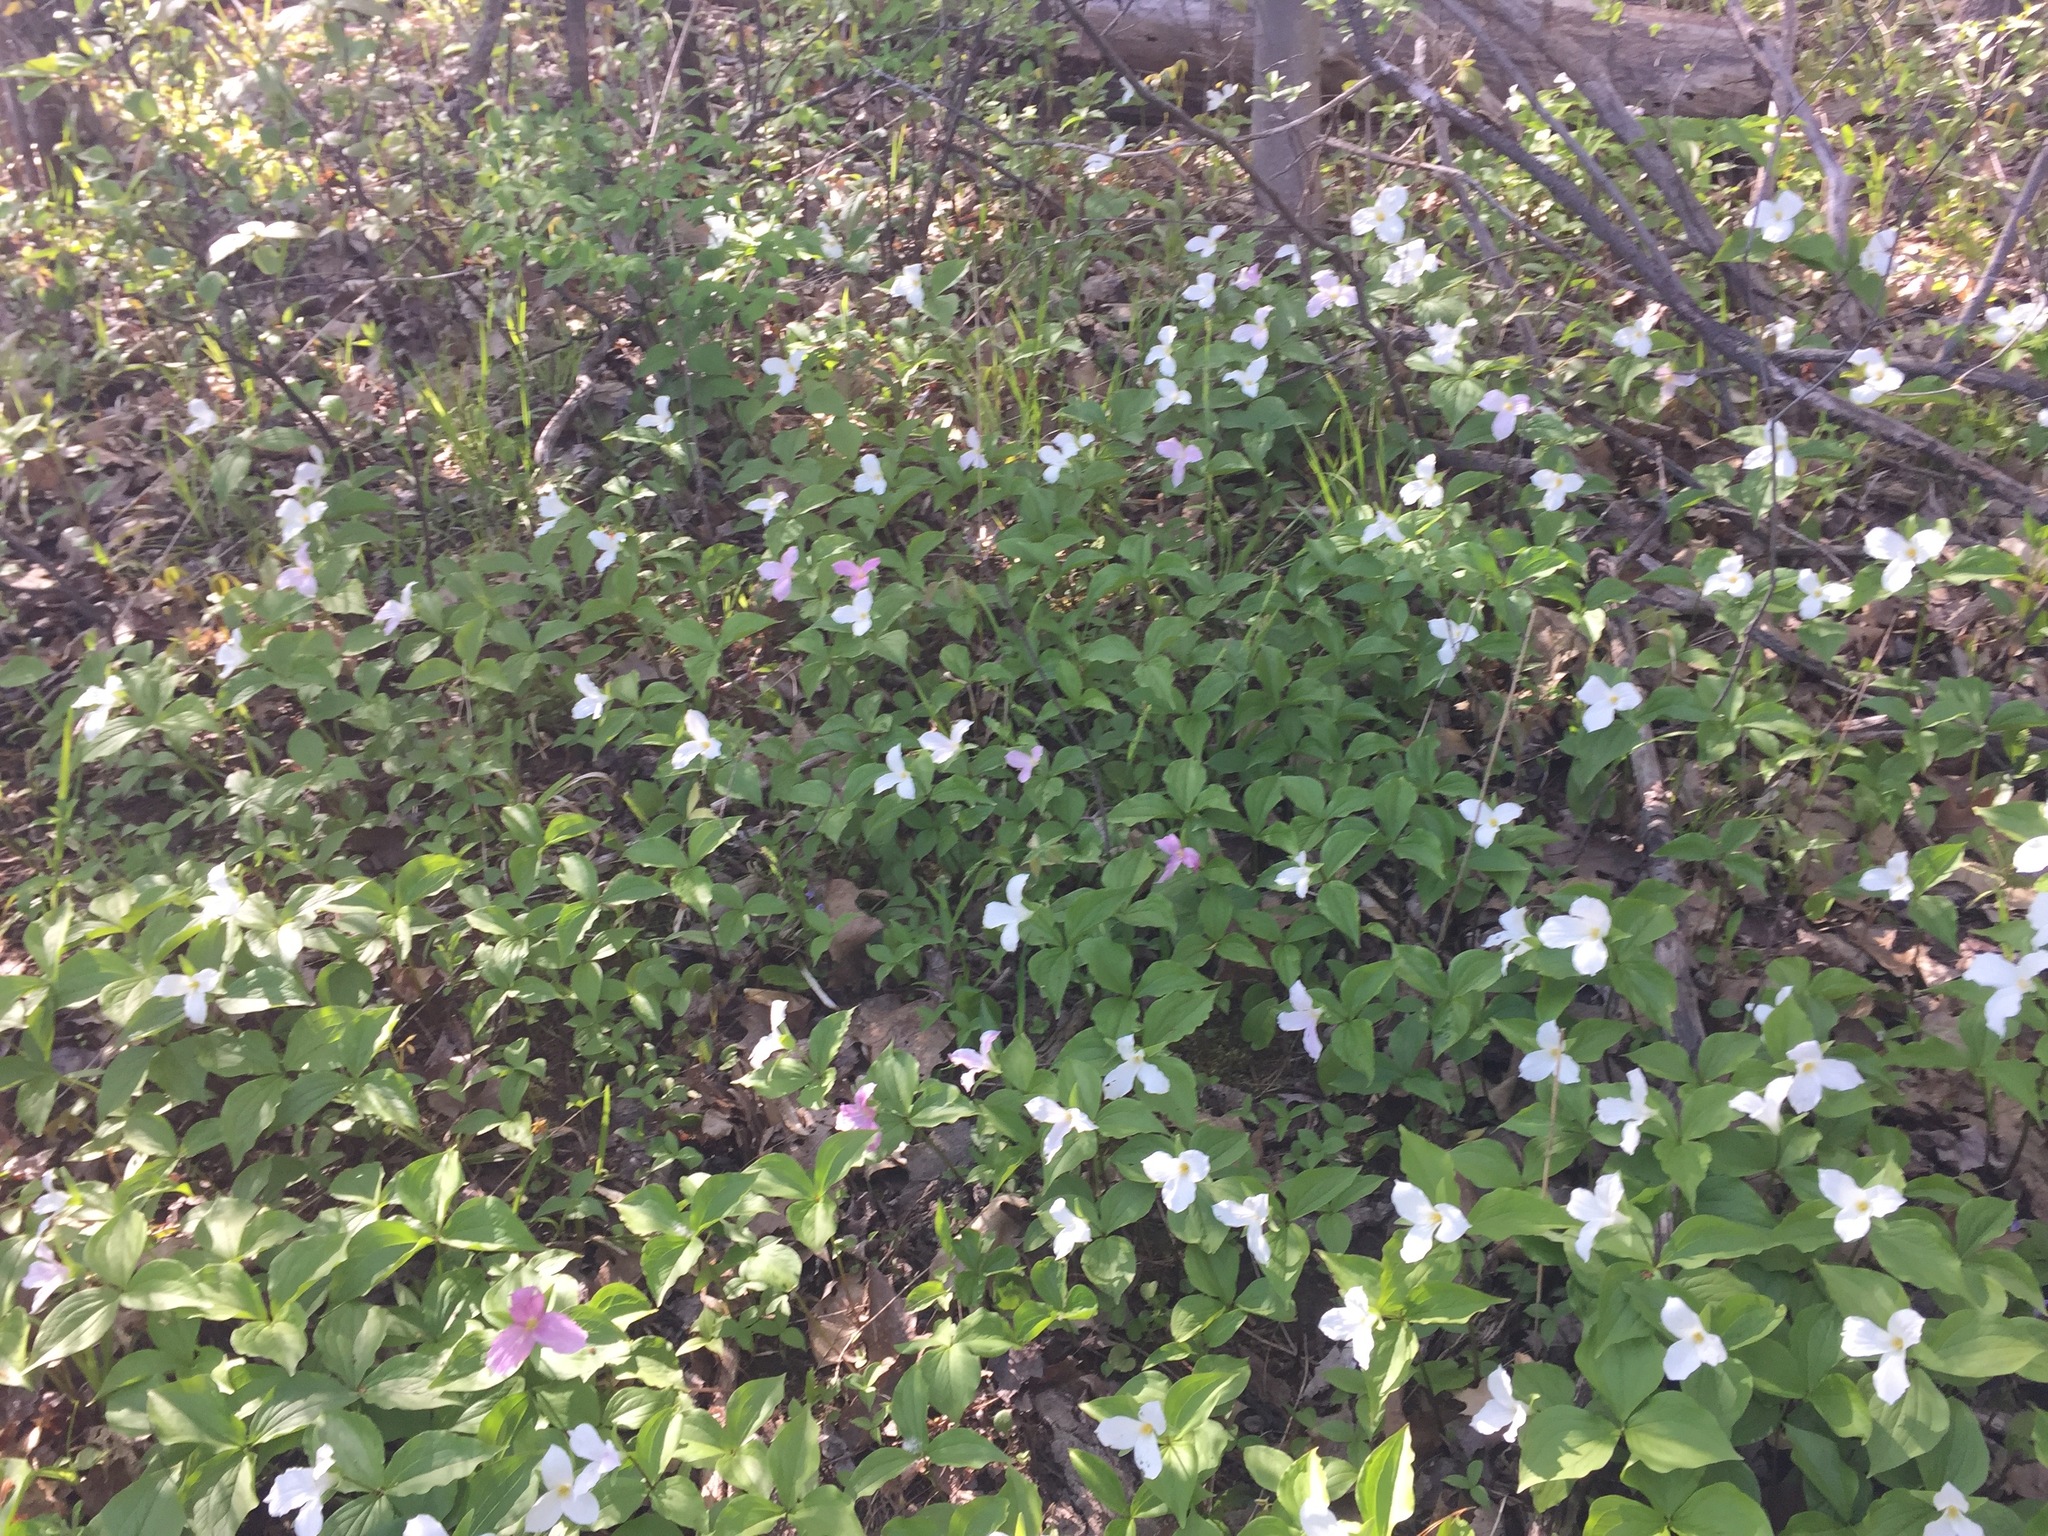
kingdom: Plantae
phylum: Tracheophyta
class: Liliopsida
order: Liliales
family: Melanthiaceae
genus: Trillium
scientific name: Trillium grandiflorum
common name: Great white trillium
